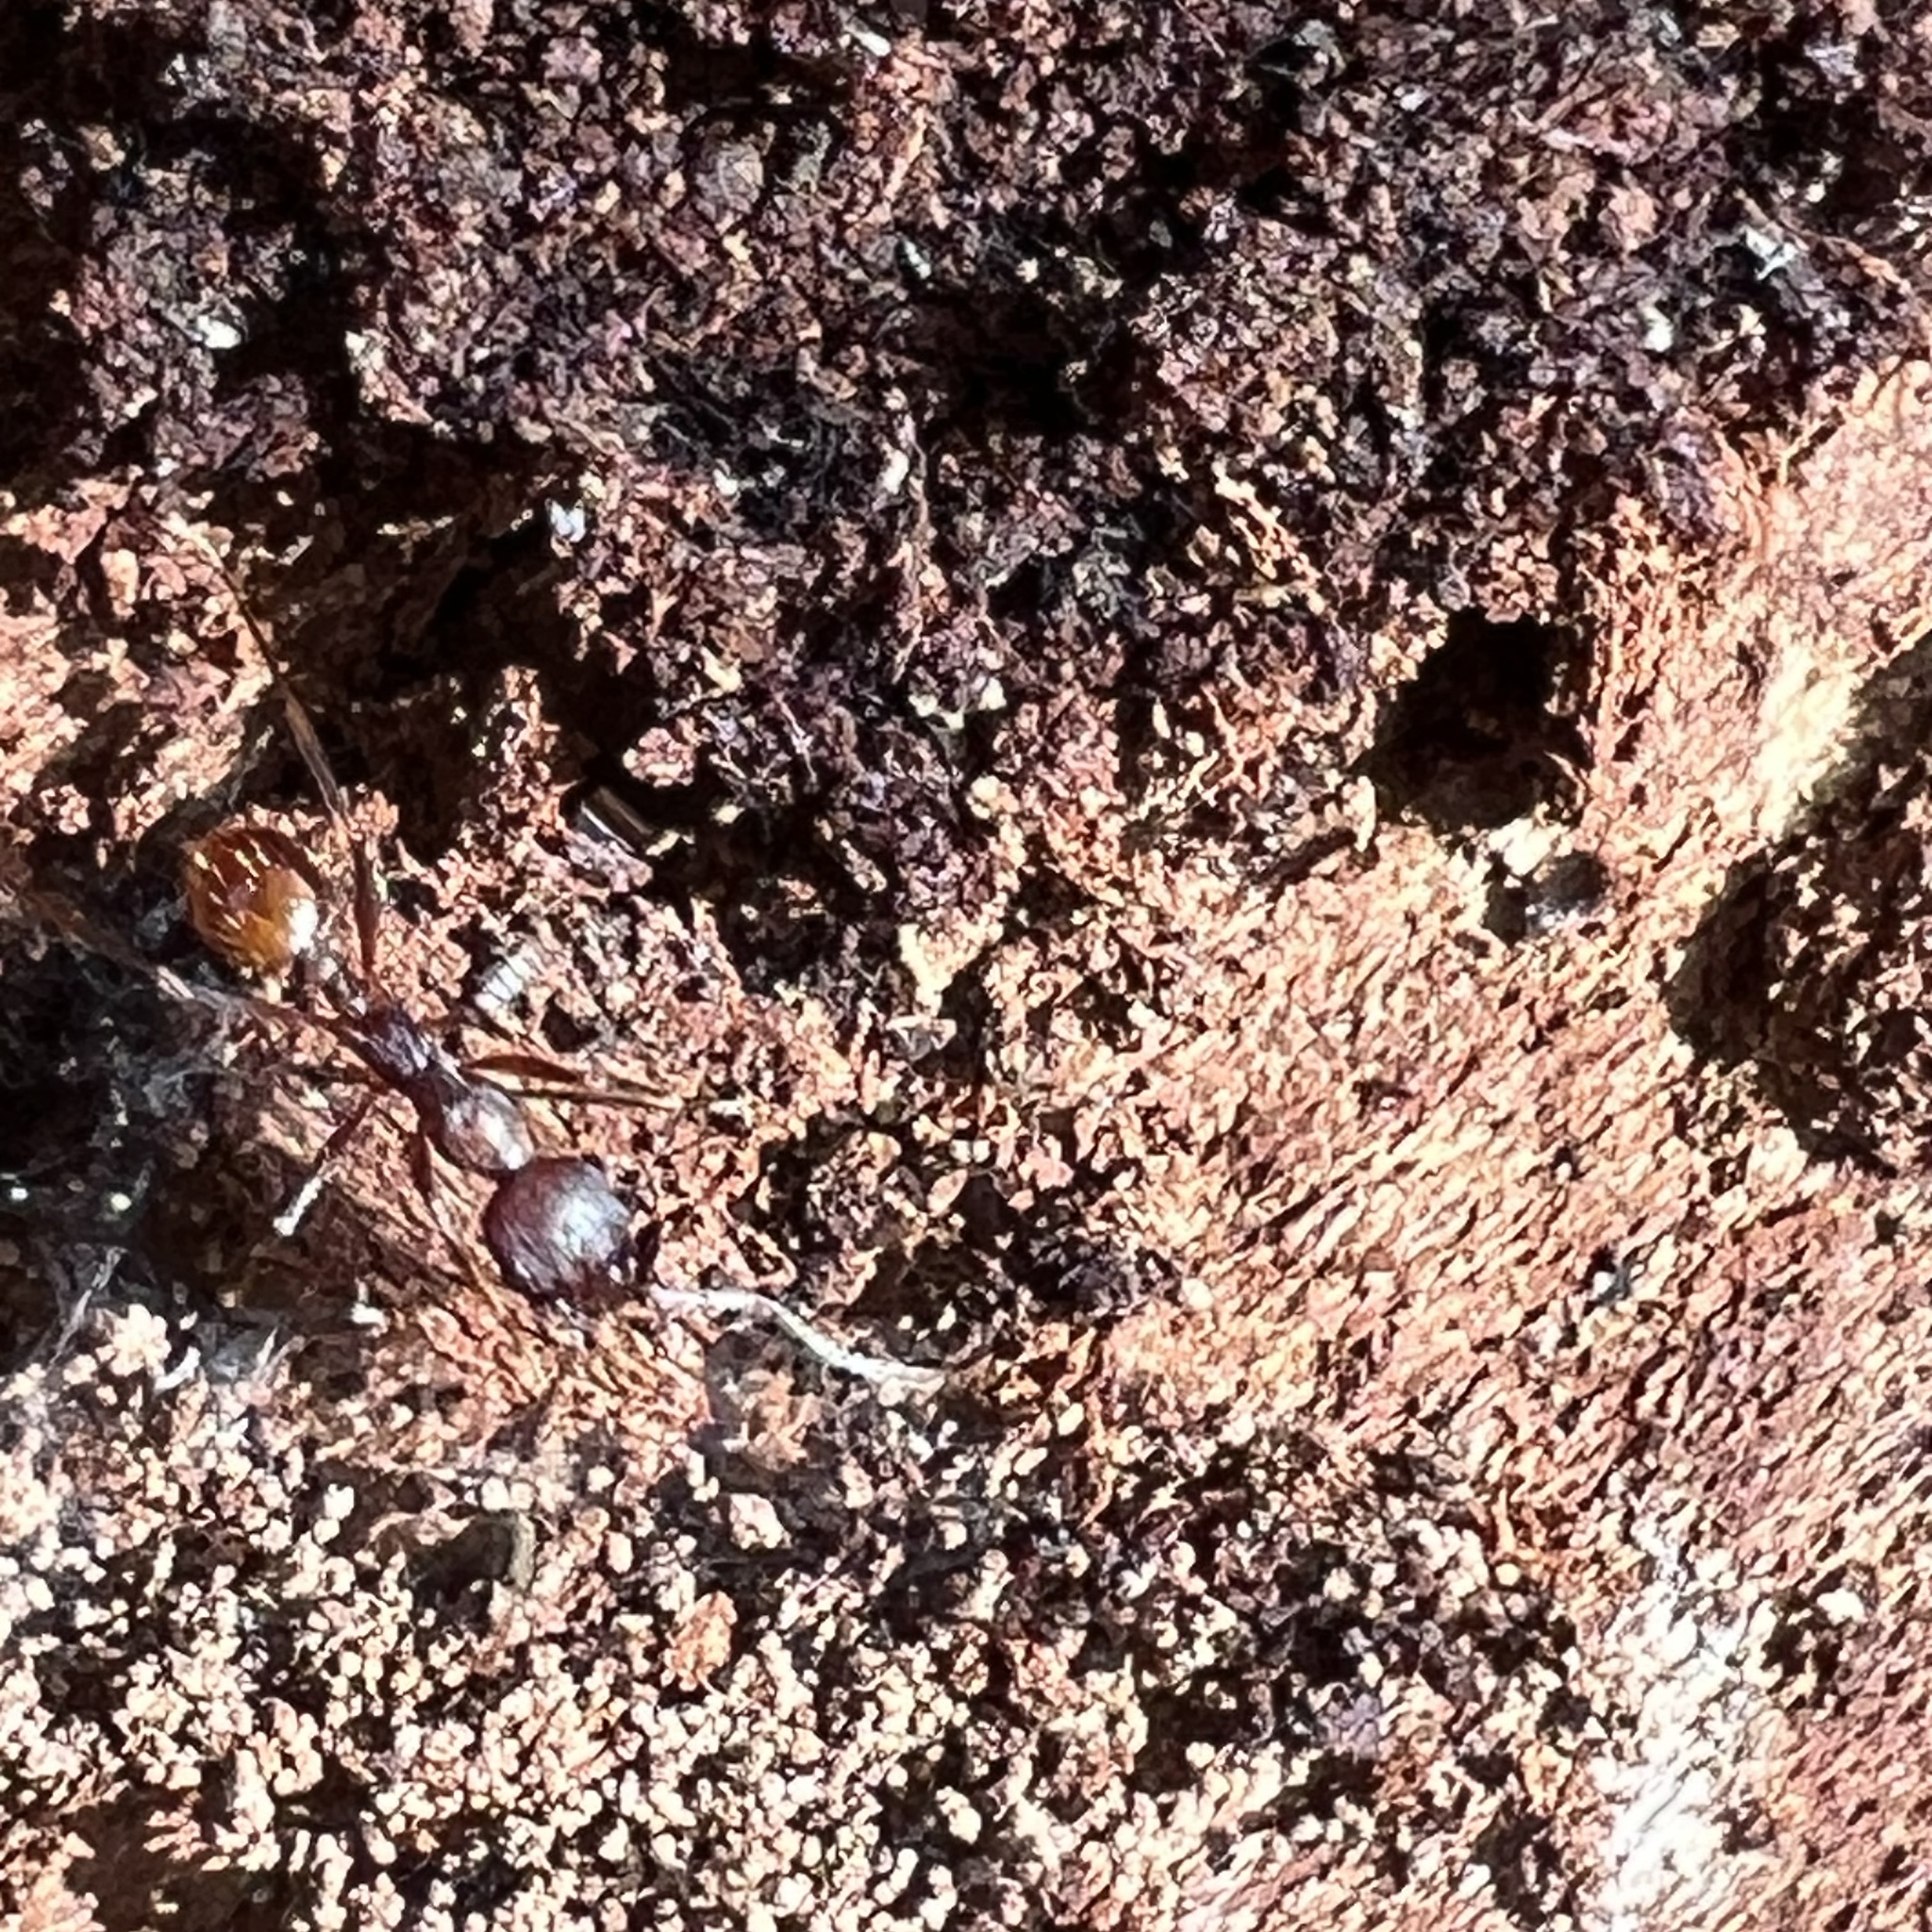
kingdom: Animalia
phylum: Arthropoda
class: Insecta
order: Hymenoptera
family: Formicidae
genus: Aphaenogaster
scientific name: Aphaenogaster fulva
